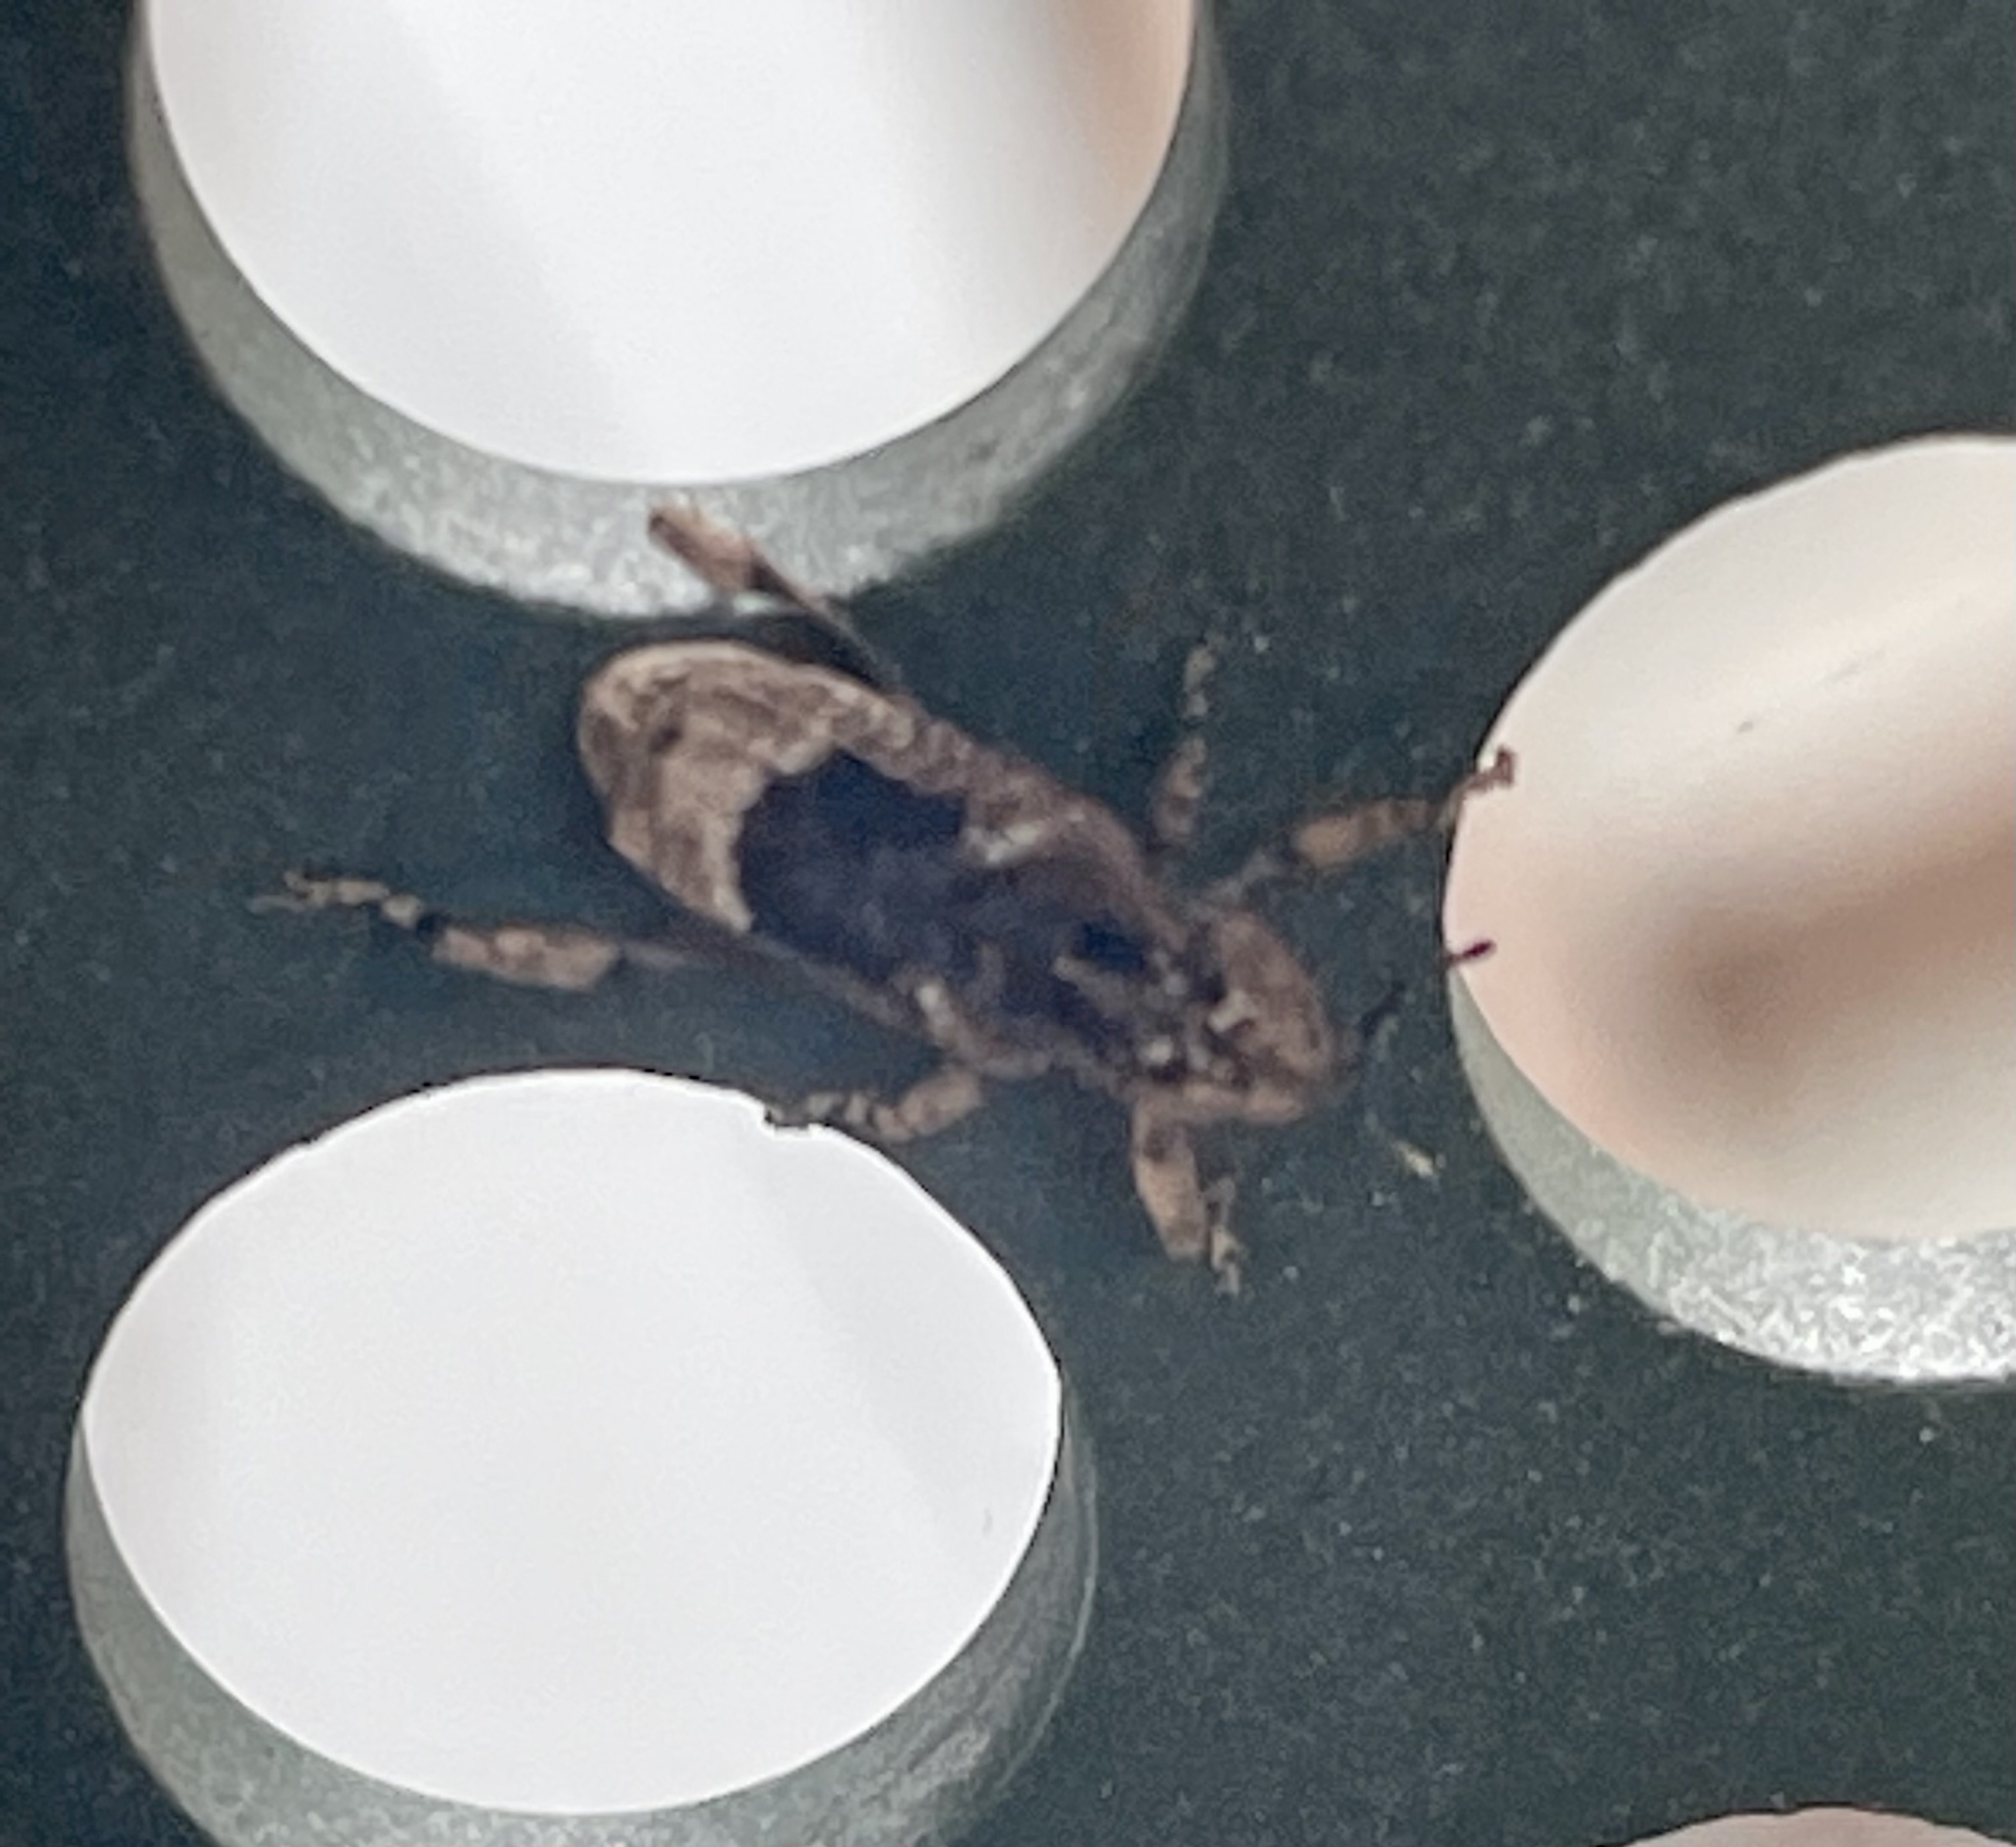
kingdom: Animalia
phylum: Arthropoda
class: Insecta
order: Coleoptera
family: Curculionidae
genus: Camptorhinus
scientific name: Camptorhinus dorsalis
